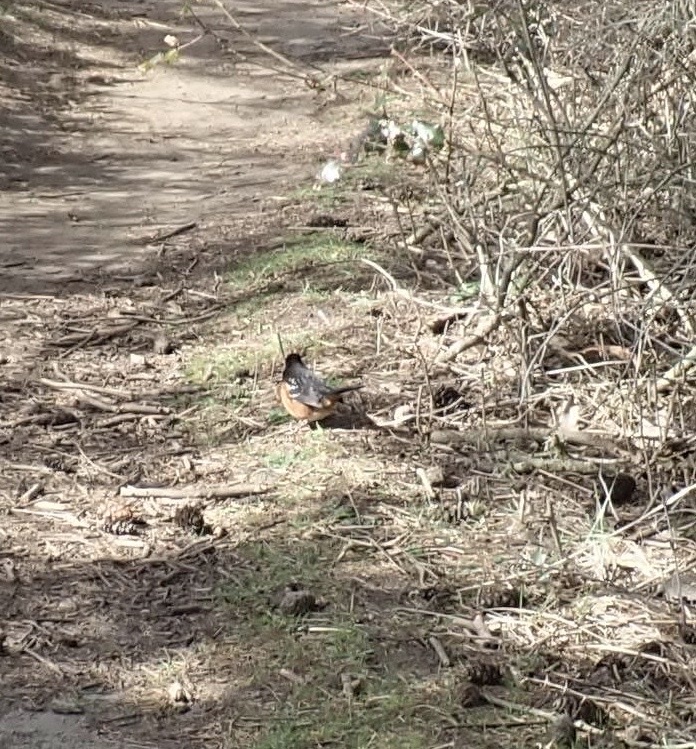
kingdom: Animalia
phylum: Chordata
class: Aves
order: Passeriformes
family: Passerellidae
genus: Pipilo
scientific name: Pipilo maculatus
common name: Spotted towhee
